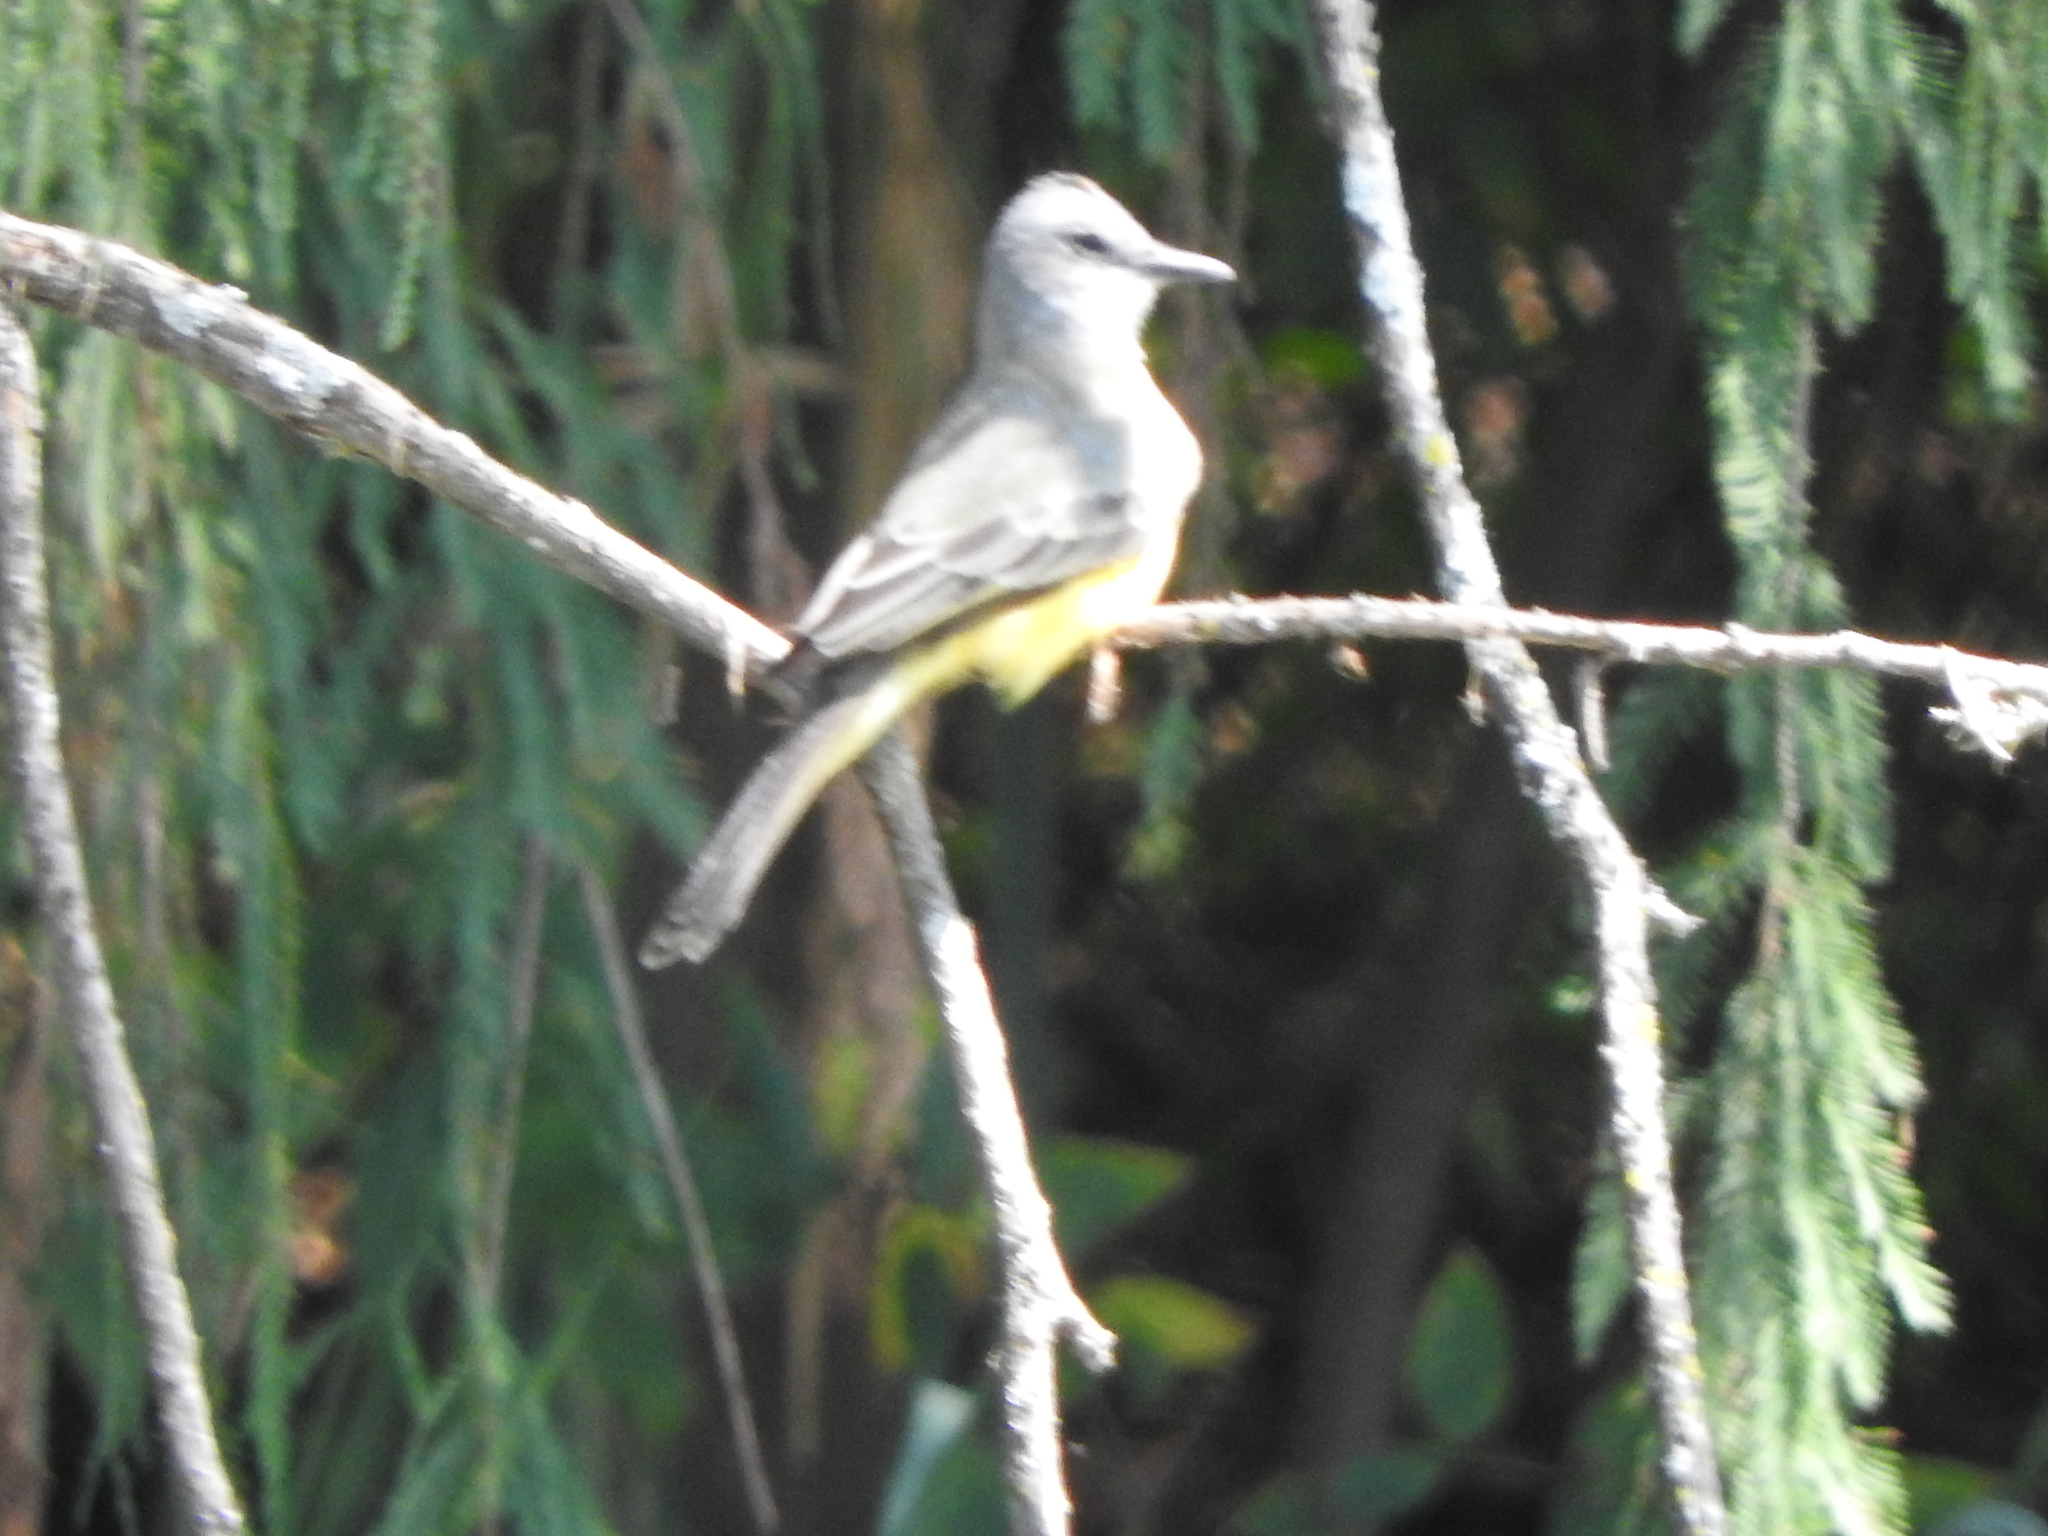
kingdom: Animalia
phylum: Chordata
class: Aves
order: Passeriformes
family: Tyrannidae
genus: Tyrannus
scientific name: Tyrannus melancholicus
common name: Tropical kingbird
